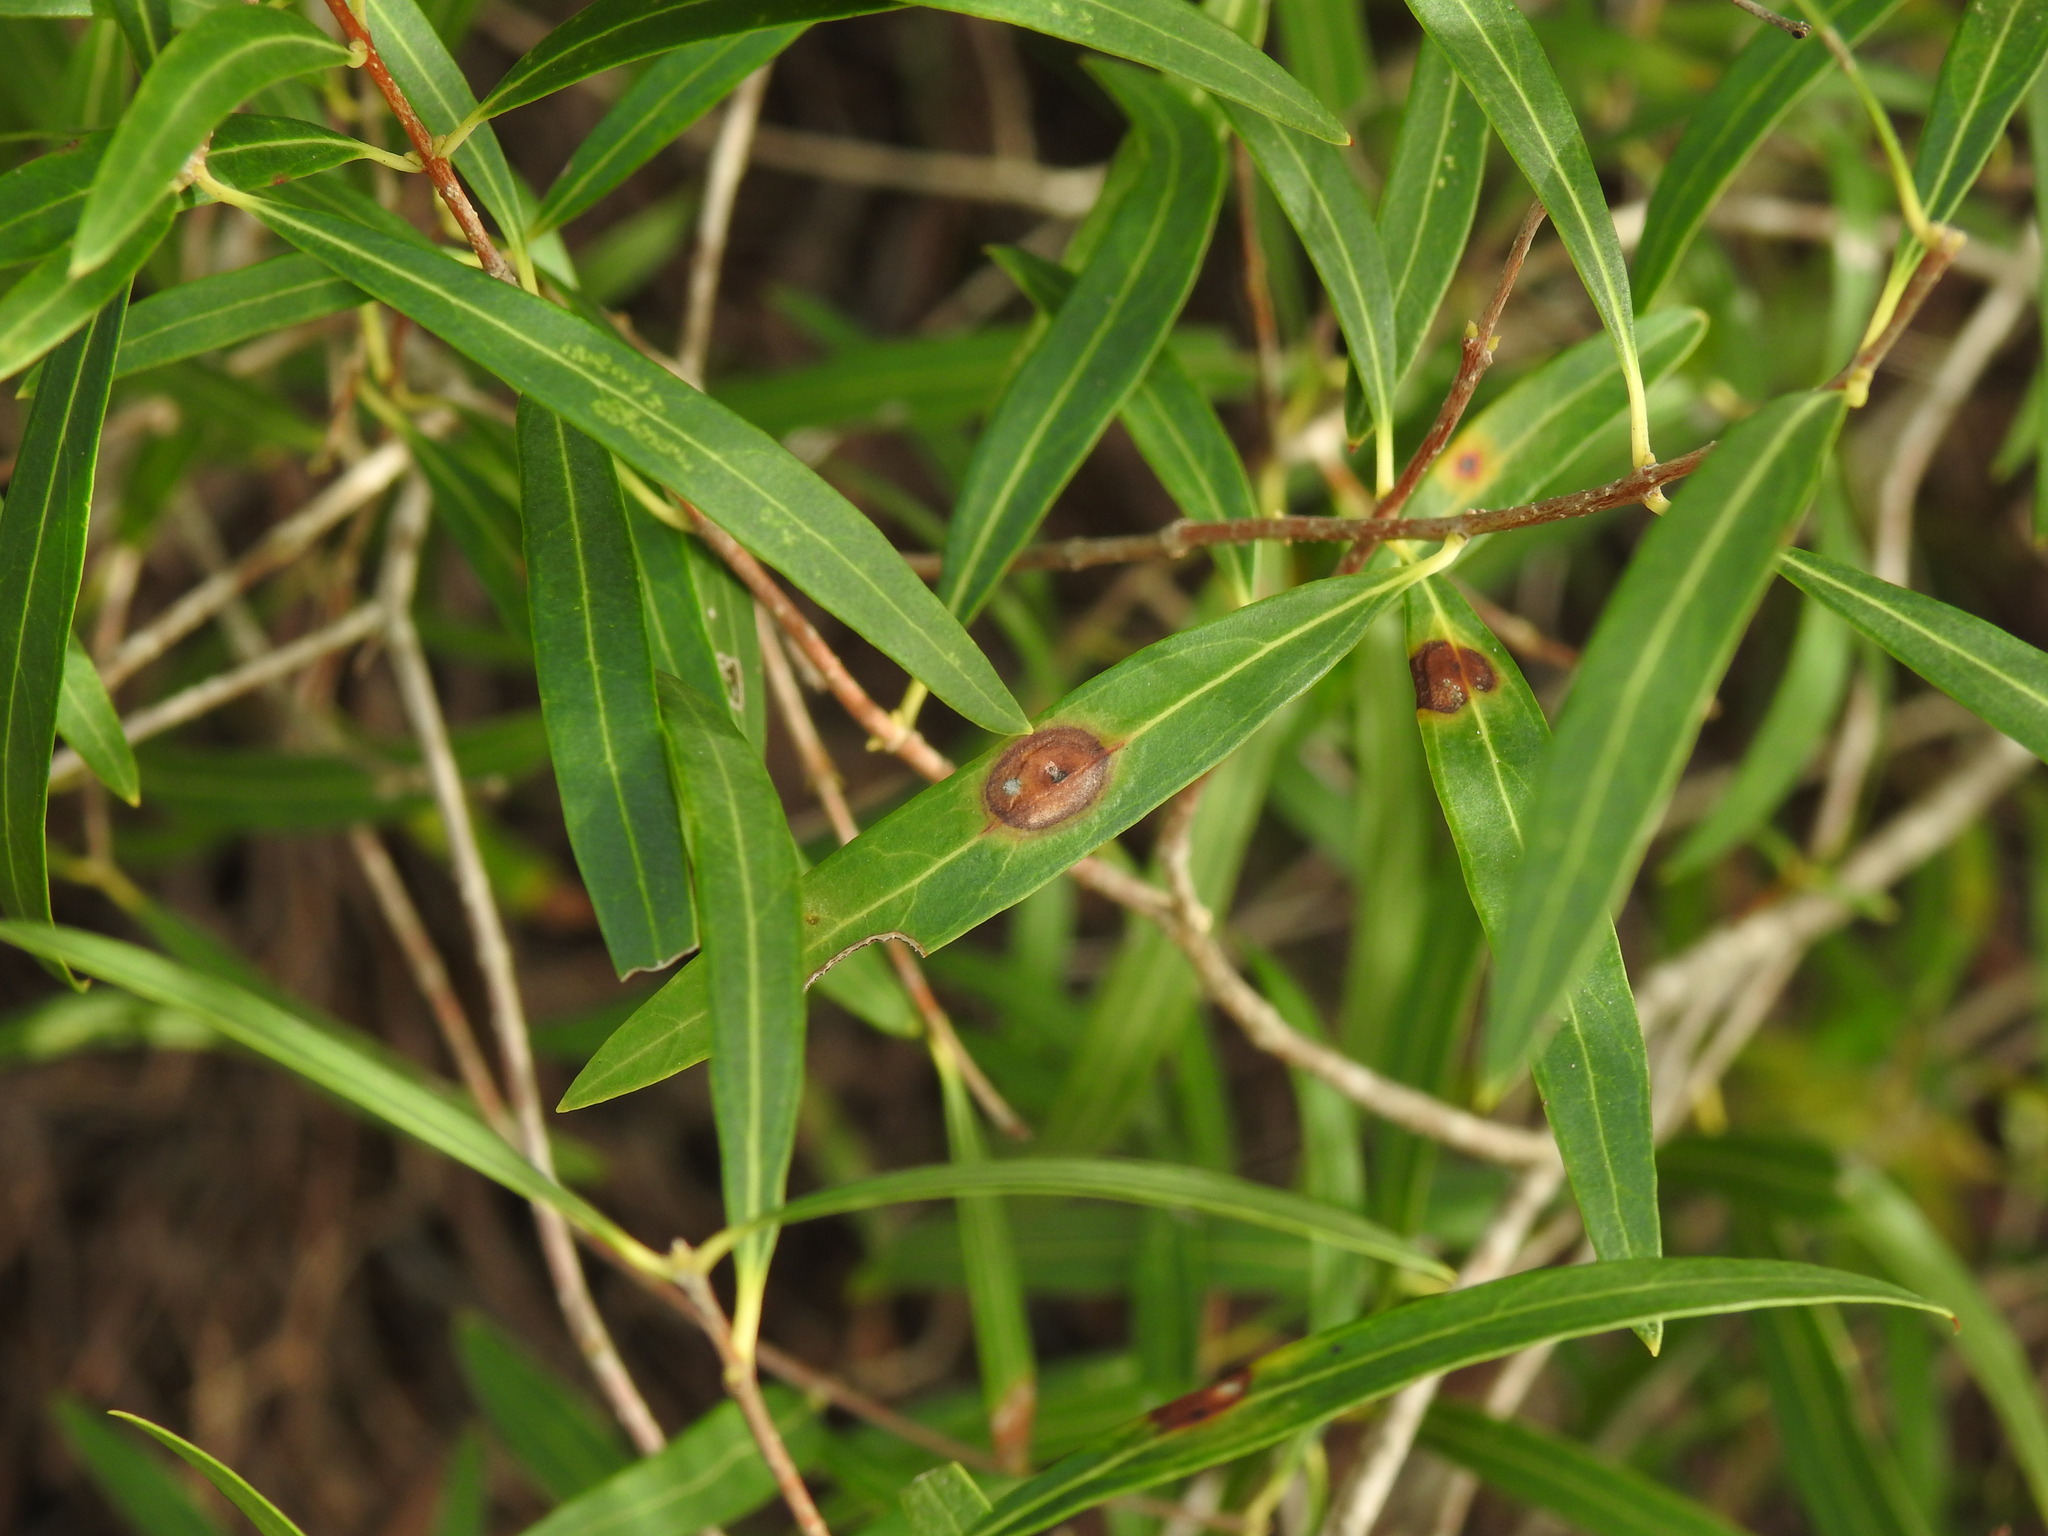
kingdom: Animalia
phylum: Arthropoda
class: Insecta
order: Diptera
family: Cecidomyiidae
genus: Braueriella
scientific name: Braueriella phillyreae
